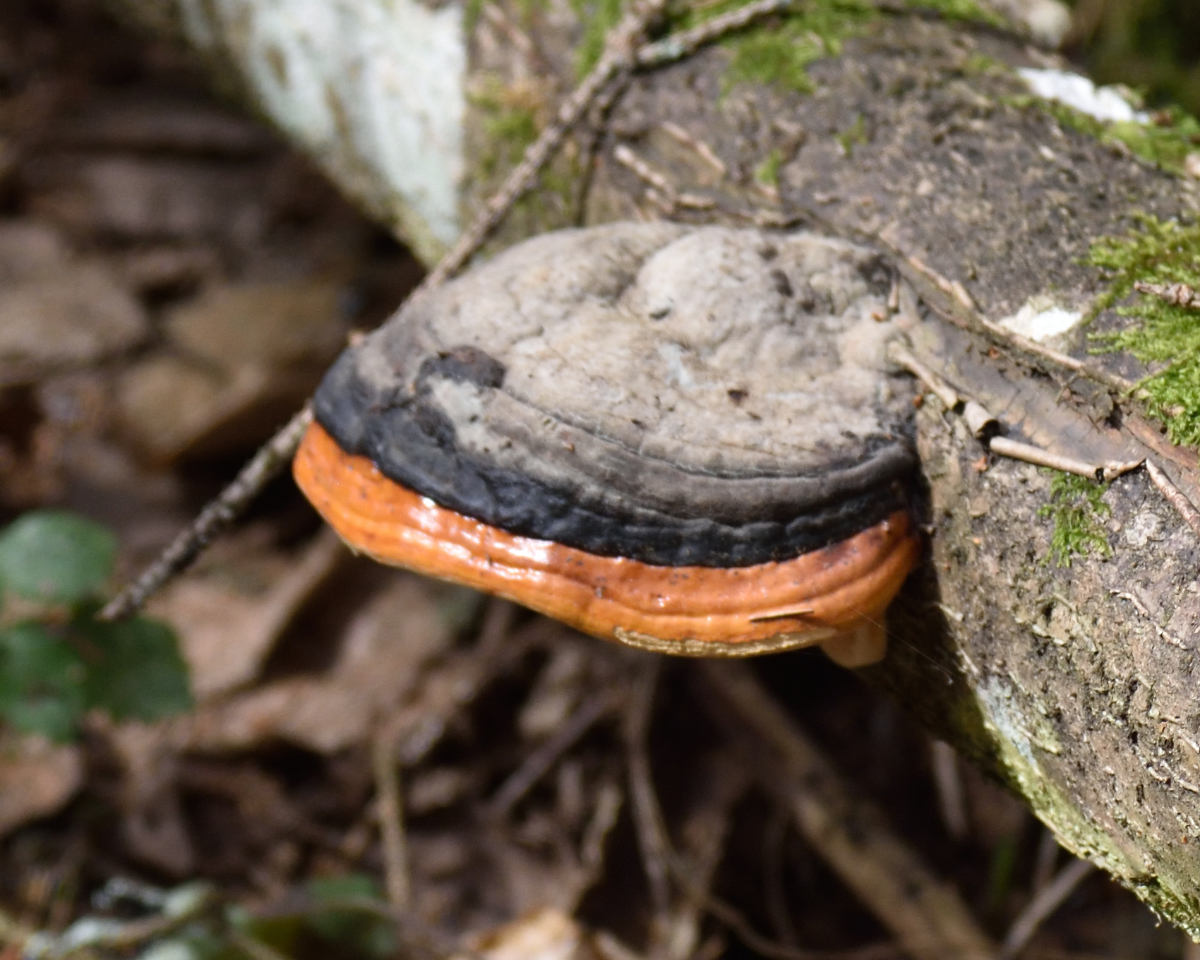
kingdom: Fungi
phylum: Basidiomycota
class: Agaricomycetes
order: Polyporales
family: Fomitopsidaceae
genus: Fomitopsis
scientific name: Fomitopsis pinicola
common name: Red-belted bracket
